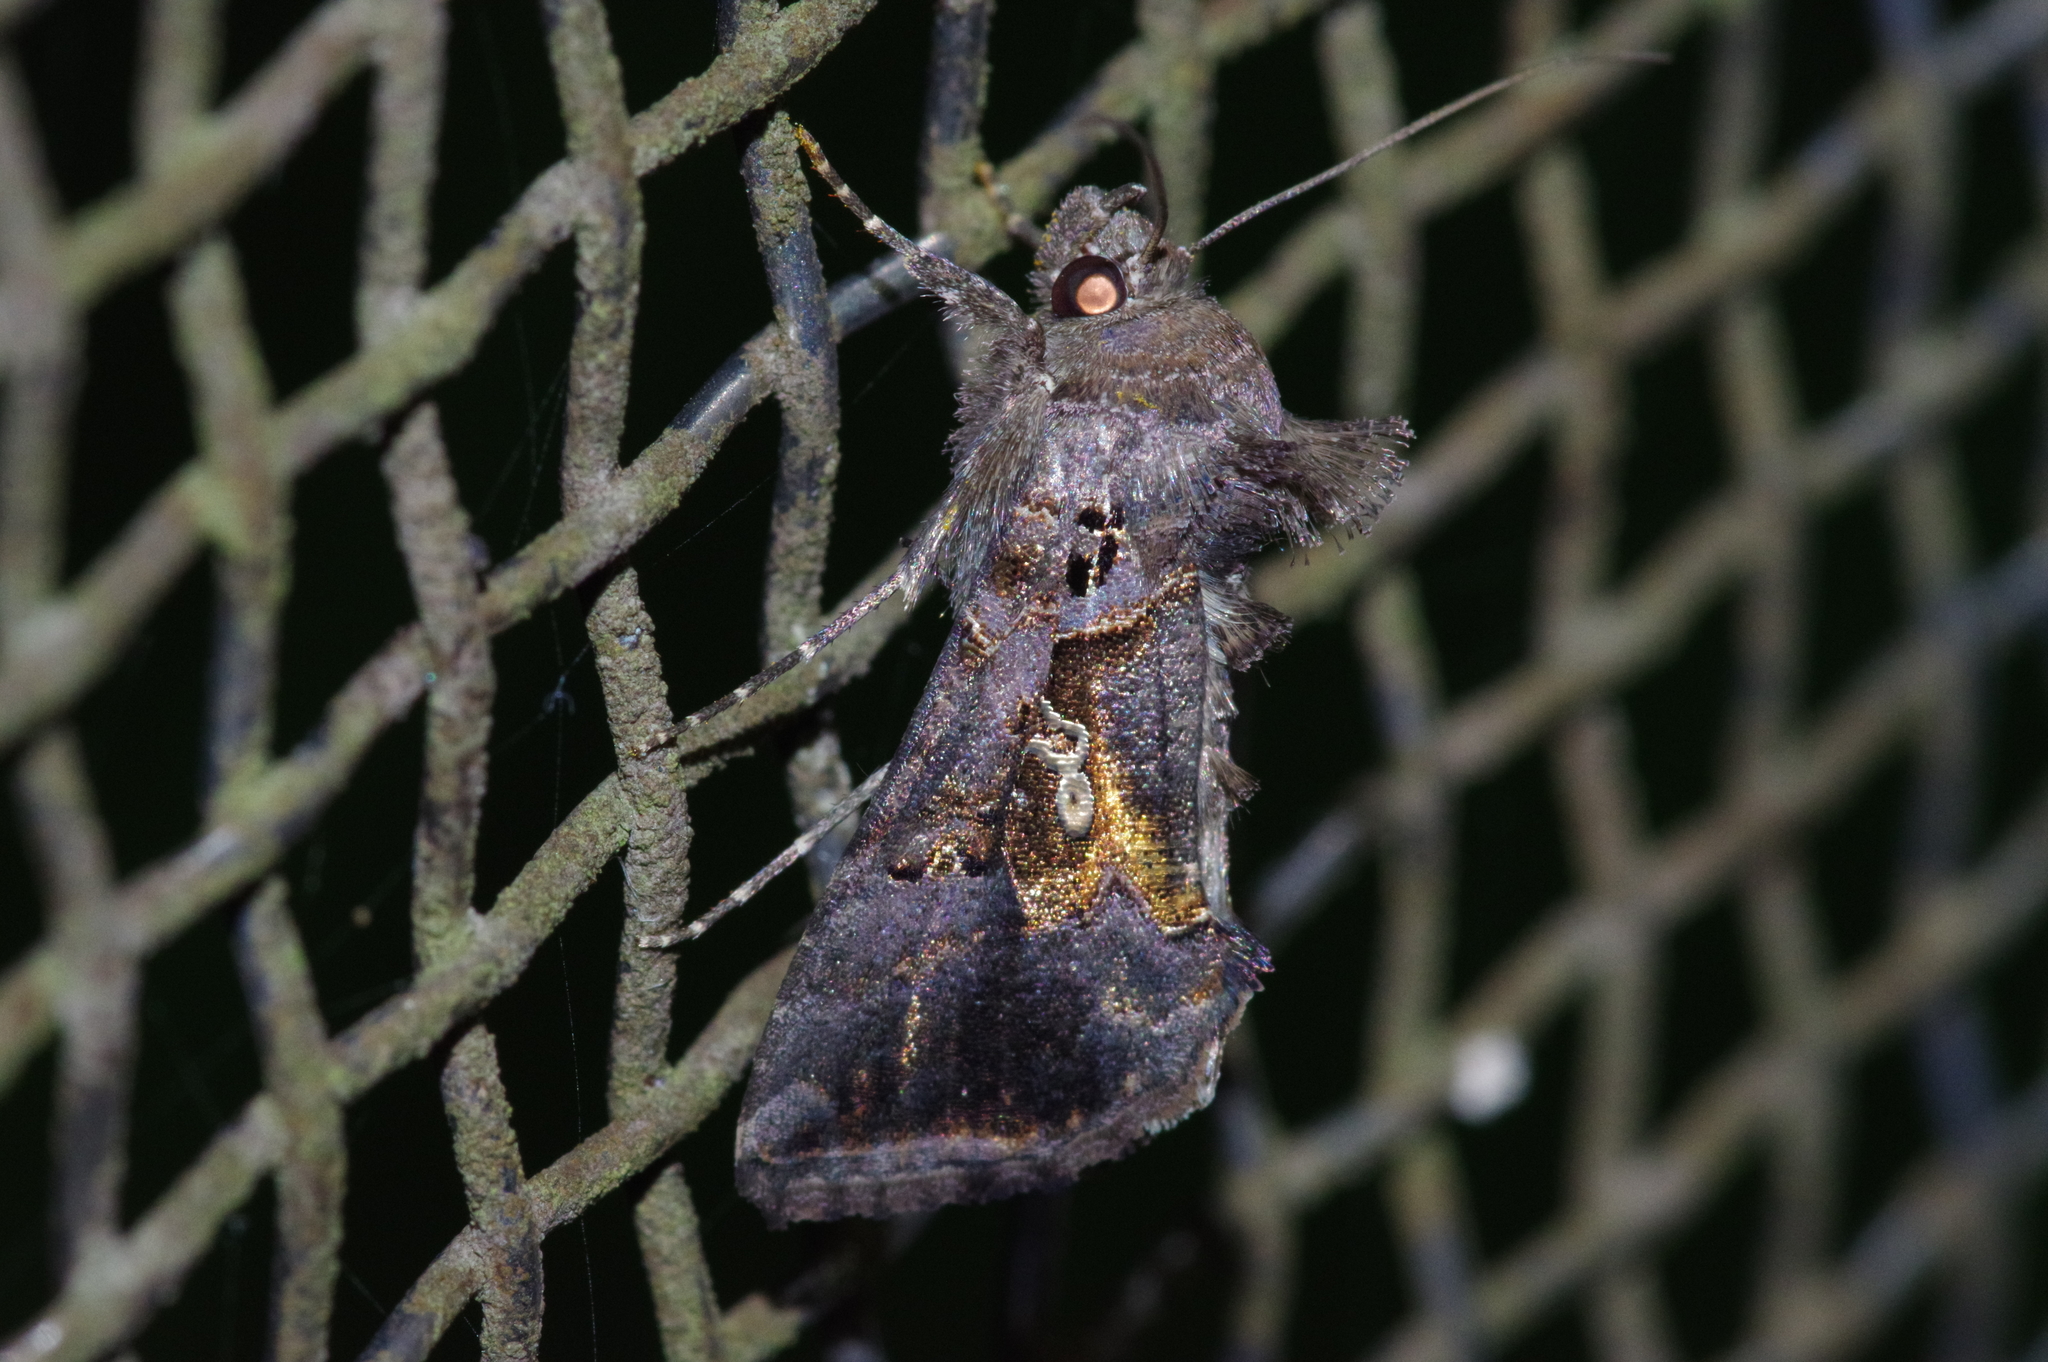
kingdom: Animalia
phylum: Arthropoda
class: Insecta
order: Lepidoptera
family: Noctuidae
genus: Chrysodeixis
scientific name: Chrysodeixis eriosoma
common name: Green garden looper
